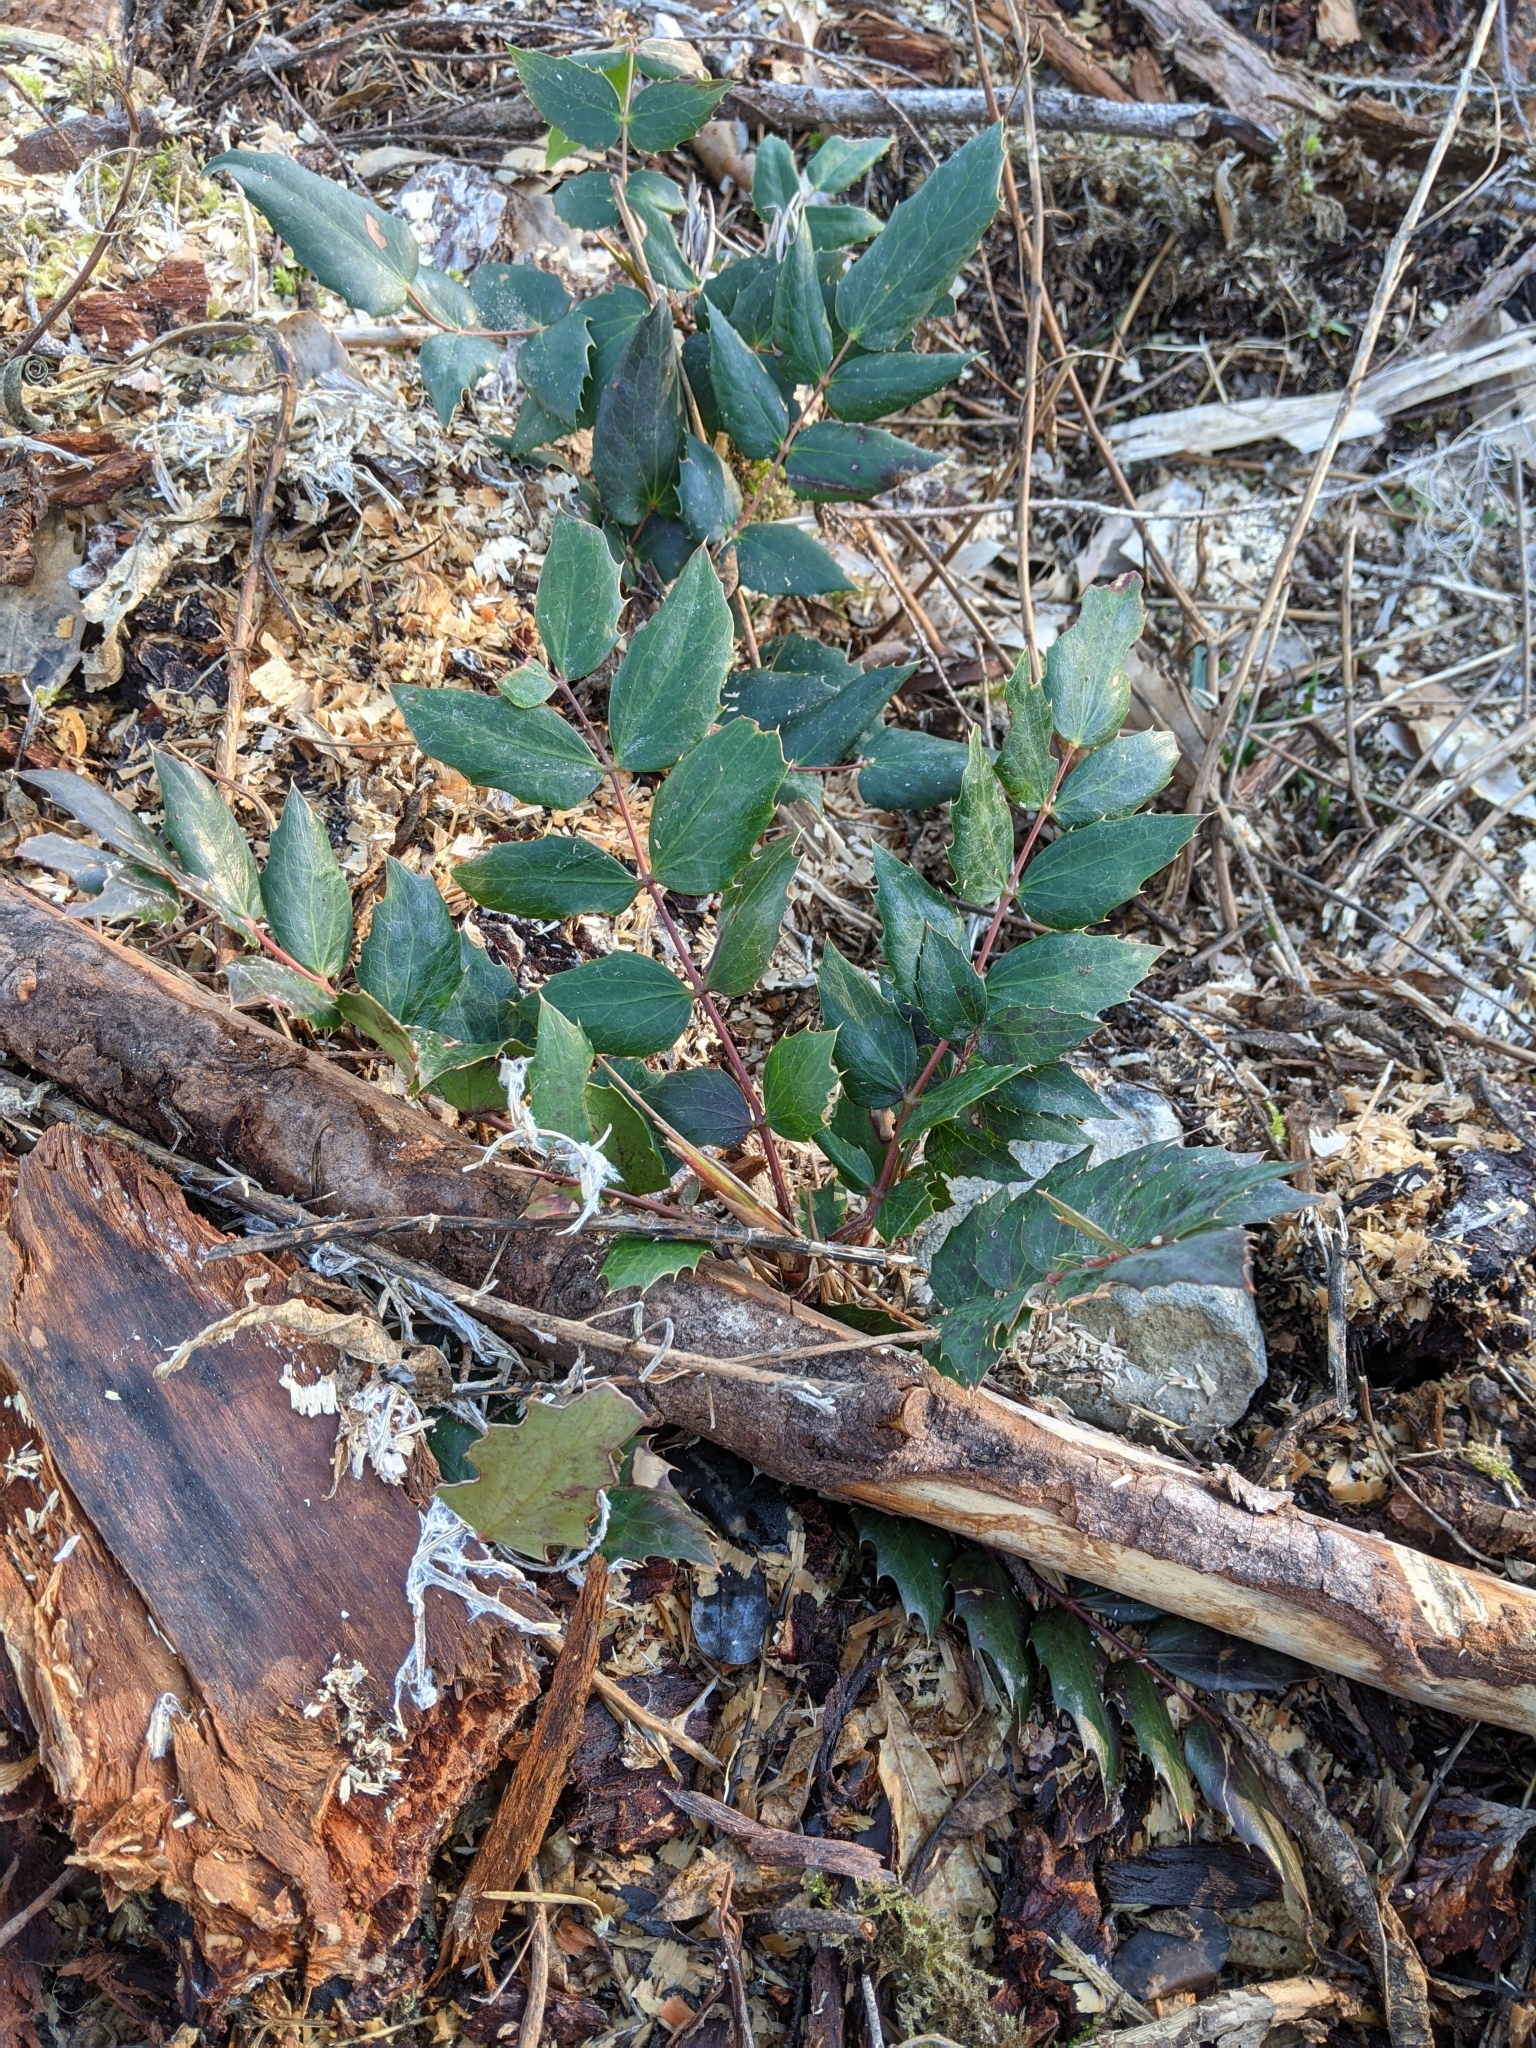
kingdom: Plantae
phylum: Tracheophyta
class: Magnoliopsida
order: Ranunculales
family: Berberidaceae
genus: Mahonia
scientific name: Mahonia nervosa
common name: Cascade oregon-grape
